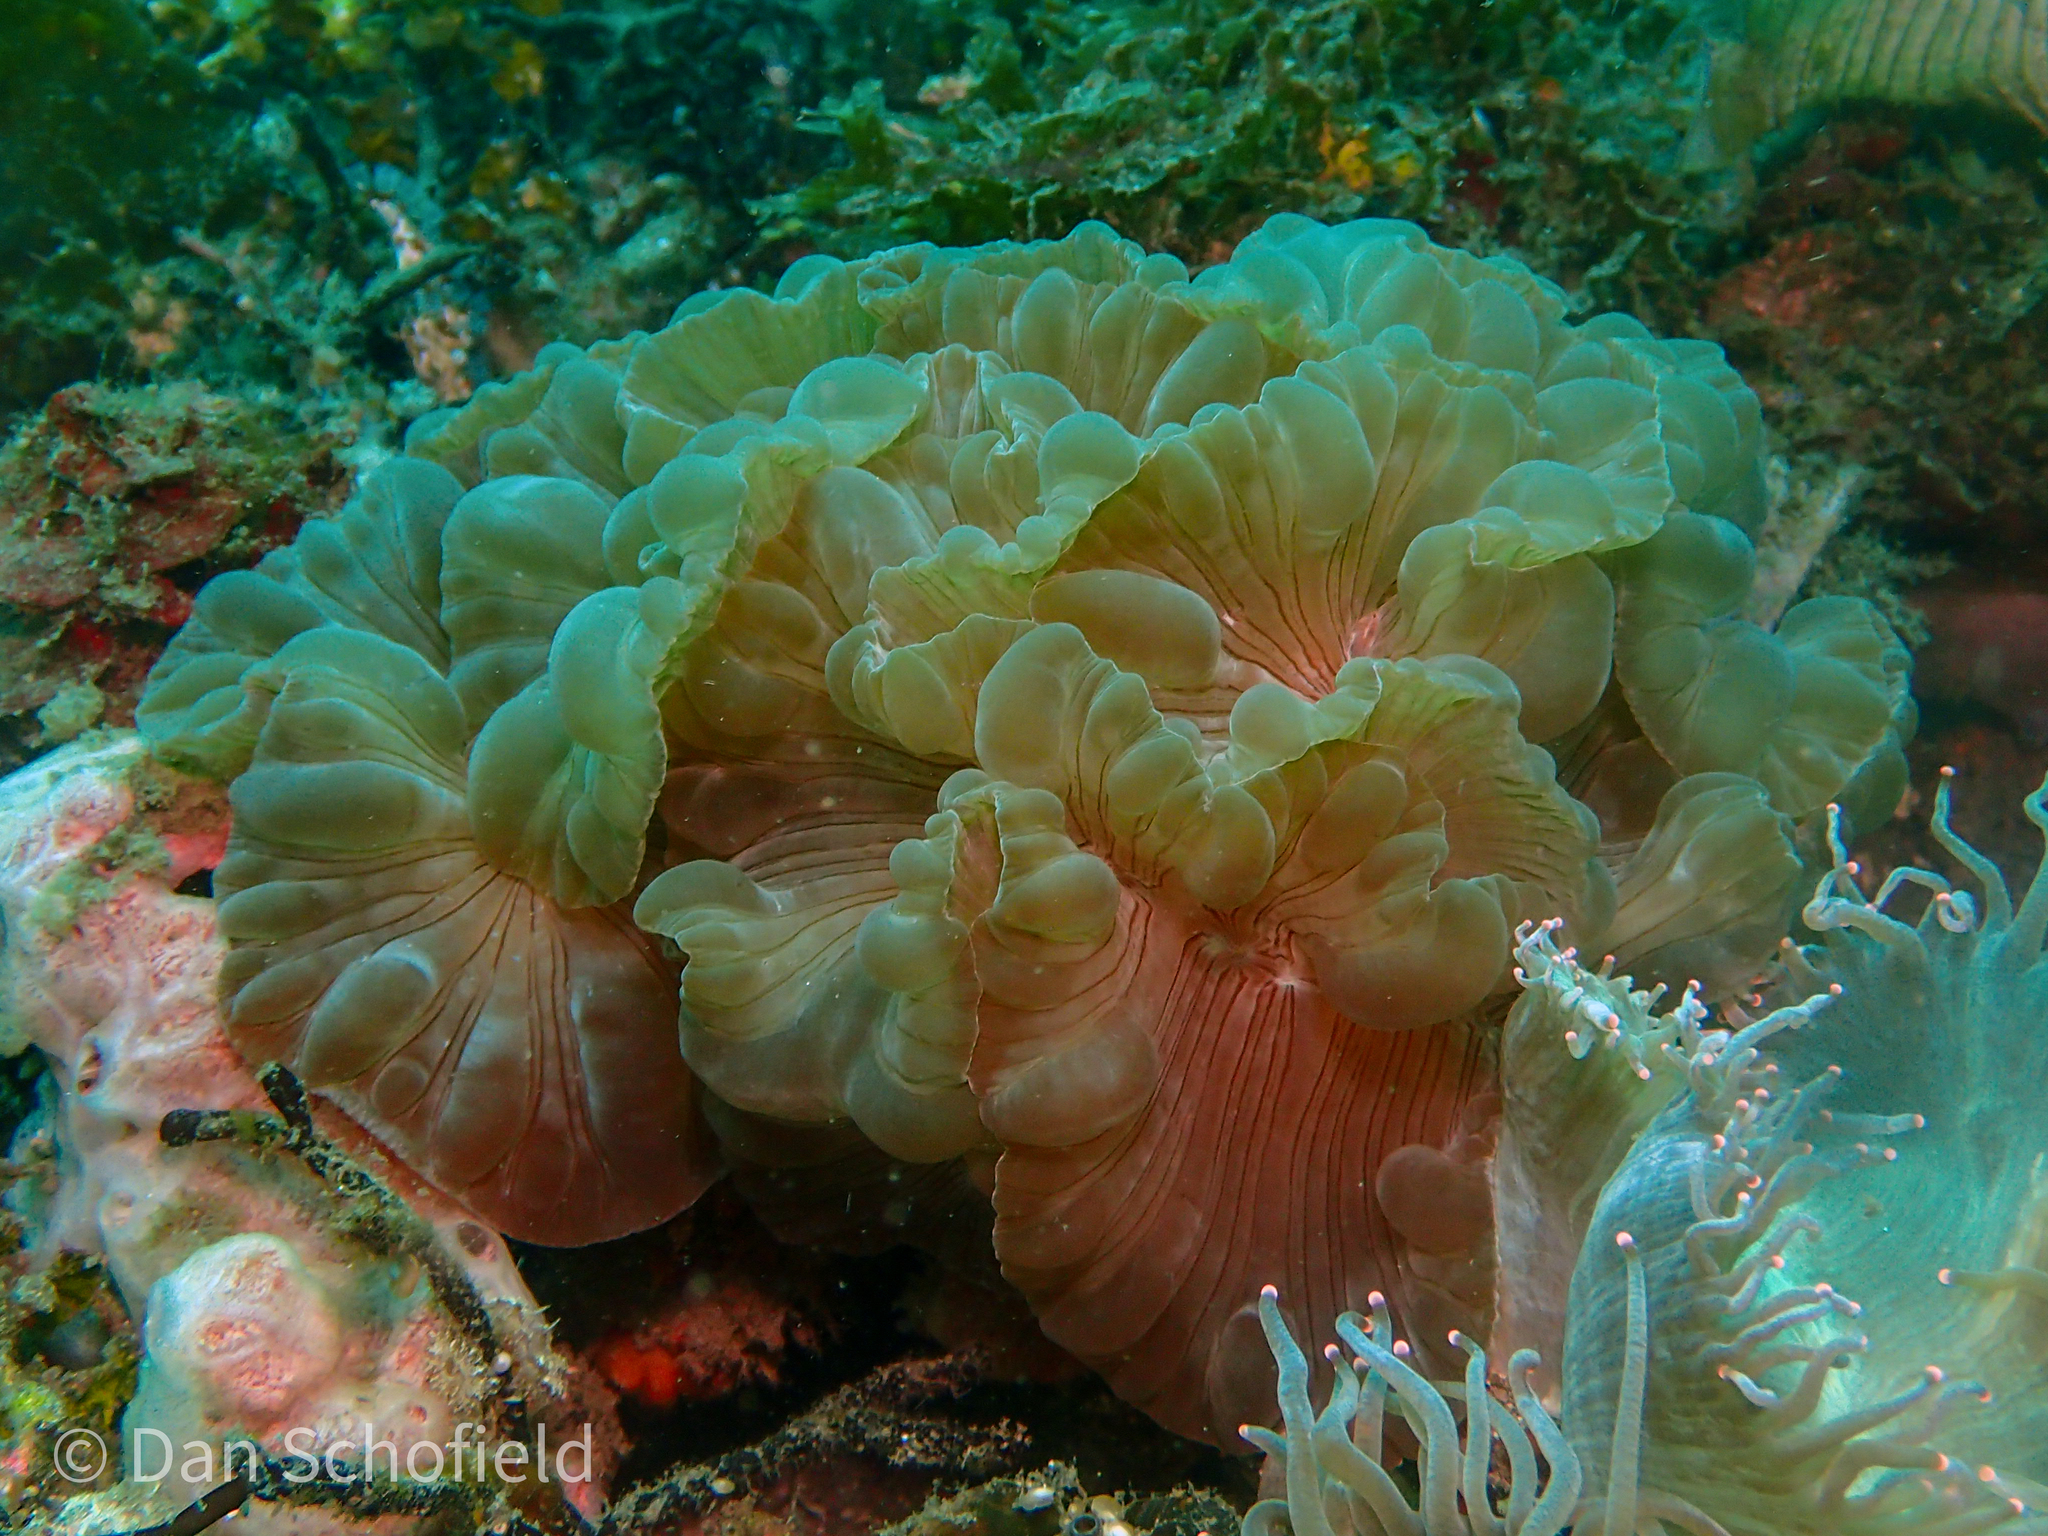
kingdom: Animalia
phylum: Cnidaria
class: Anthozoa
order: Scleractinia
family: Plerogyridae
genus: Nemenzophyllia
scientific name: Nemenzophyllia turbida
